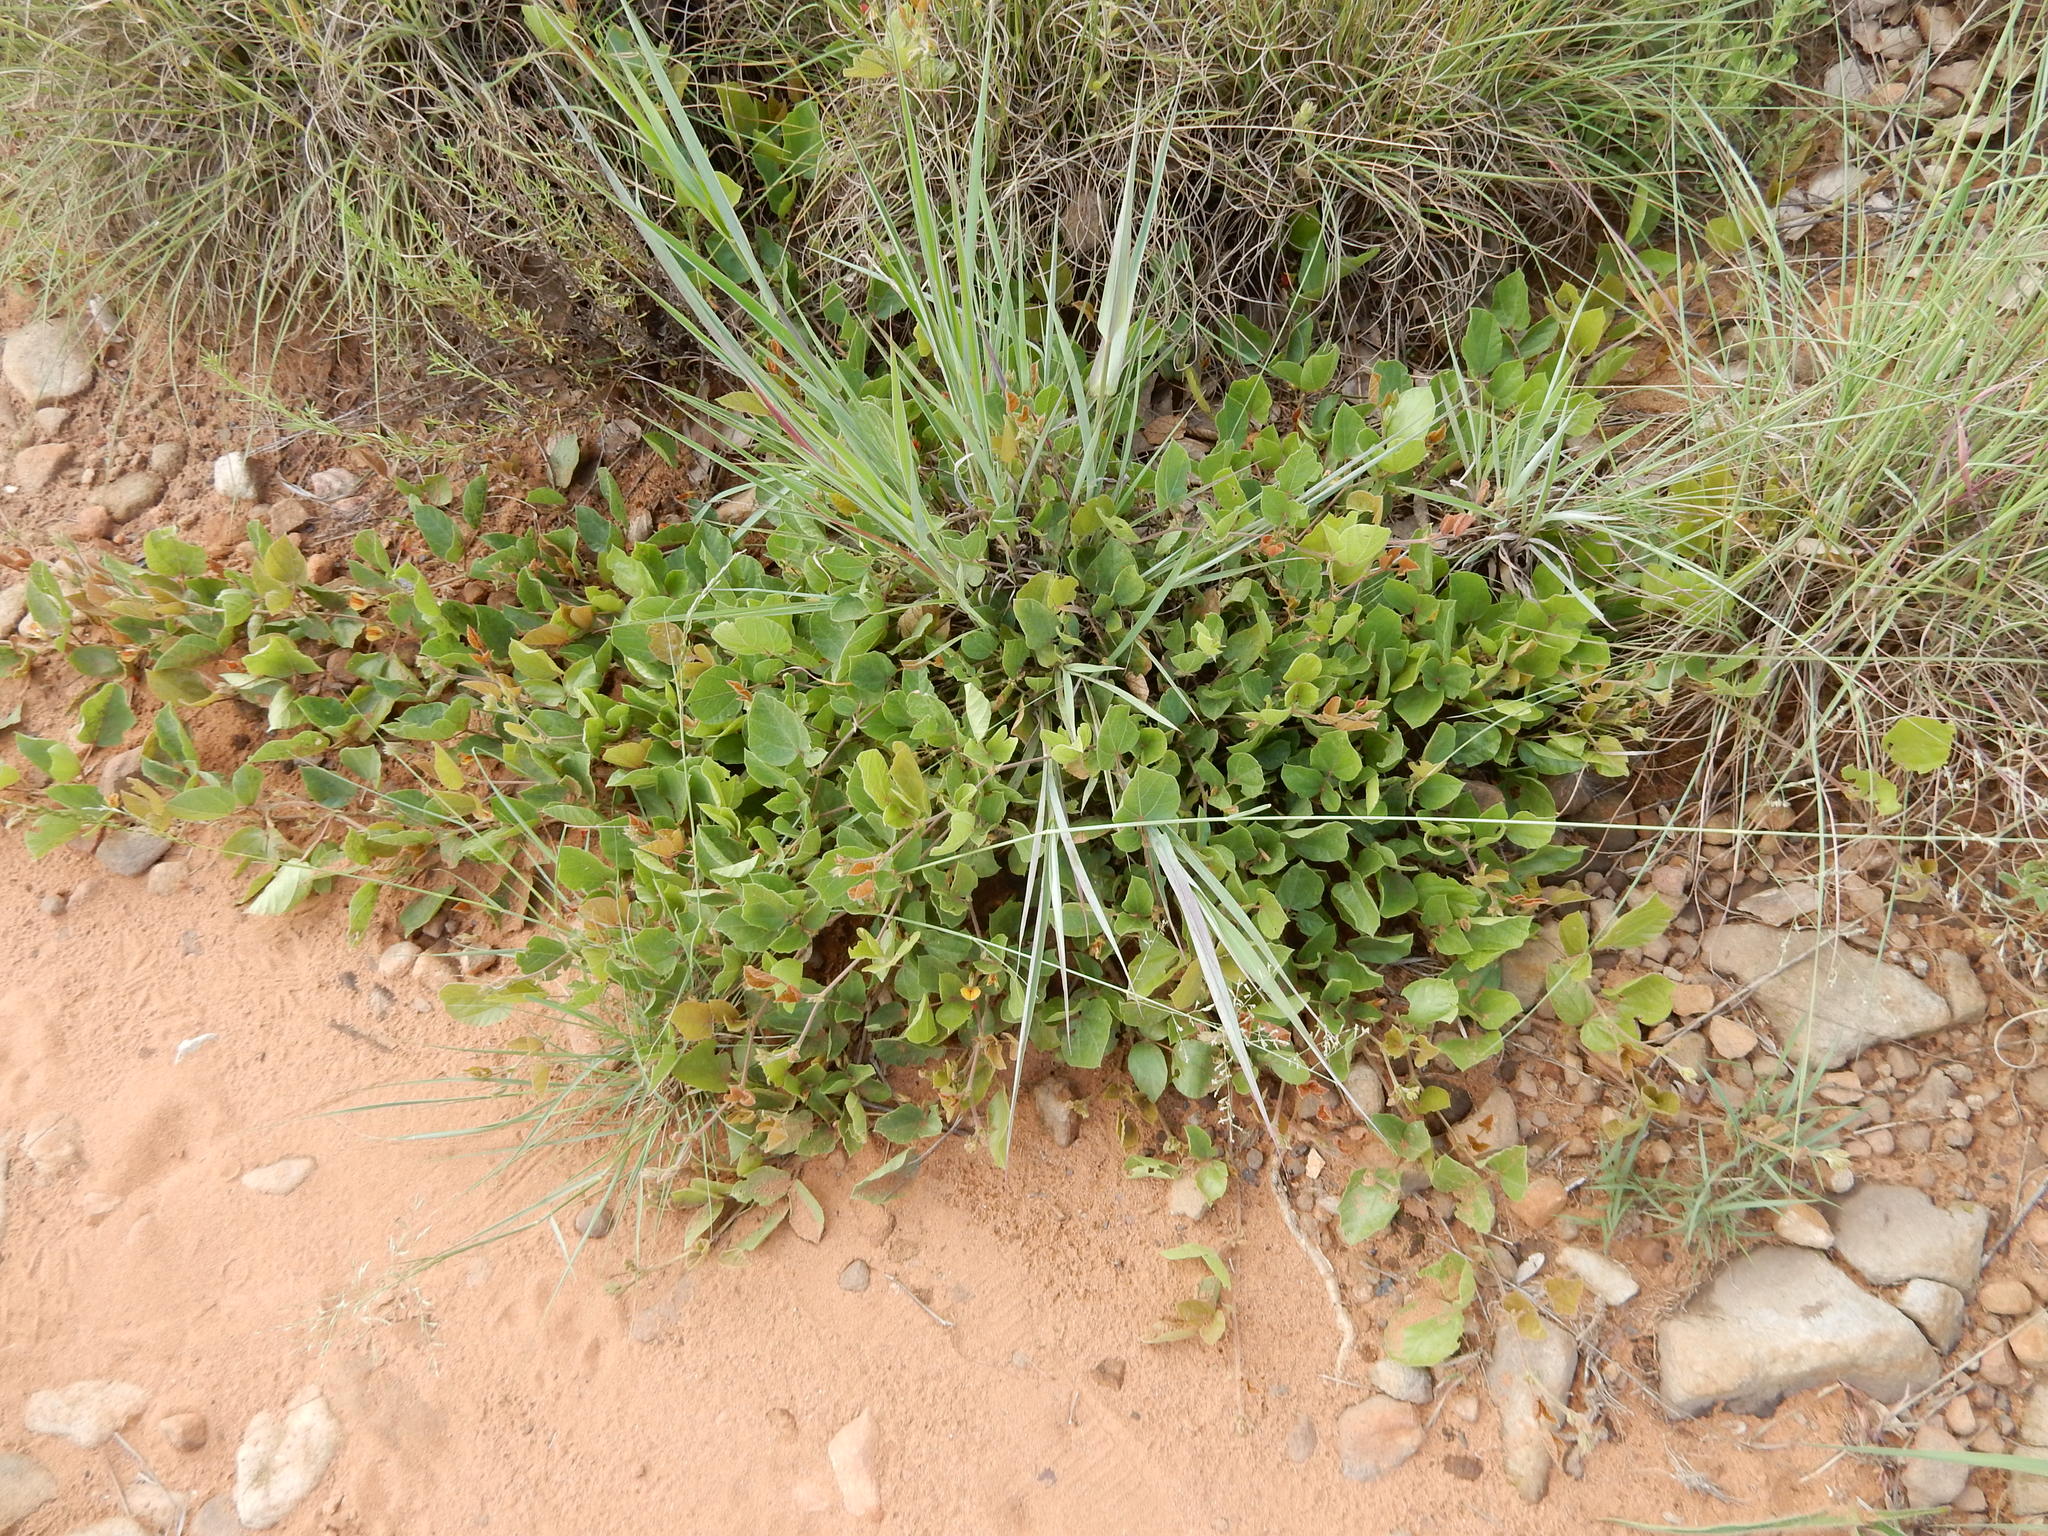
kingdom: Plantae
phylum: Tracheophyta
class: Magnoliopsida
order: Fabales
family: Fabaceae
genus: Rhynchosia
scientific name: Rhynchosia monophylla
